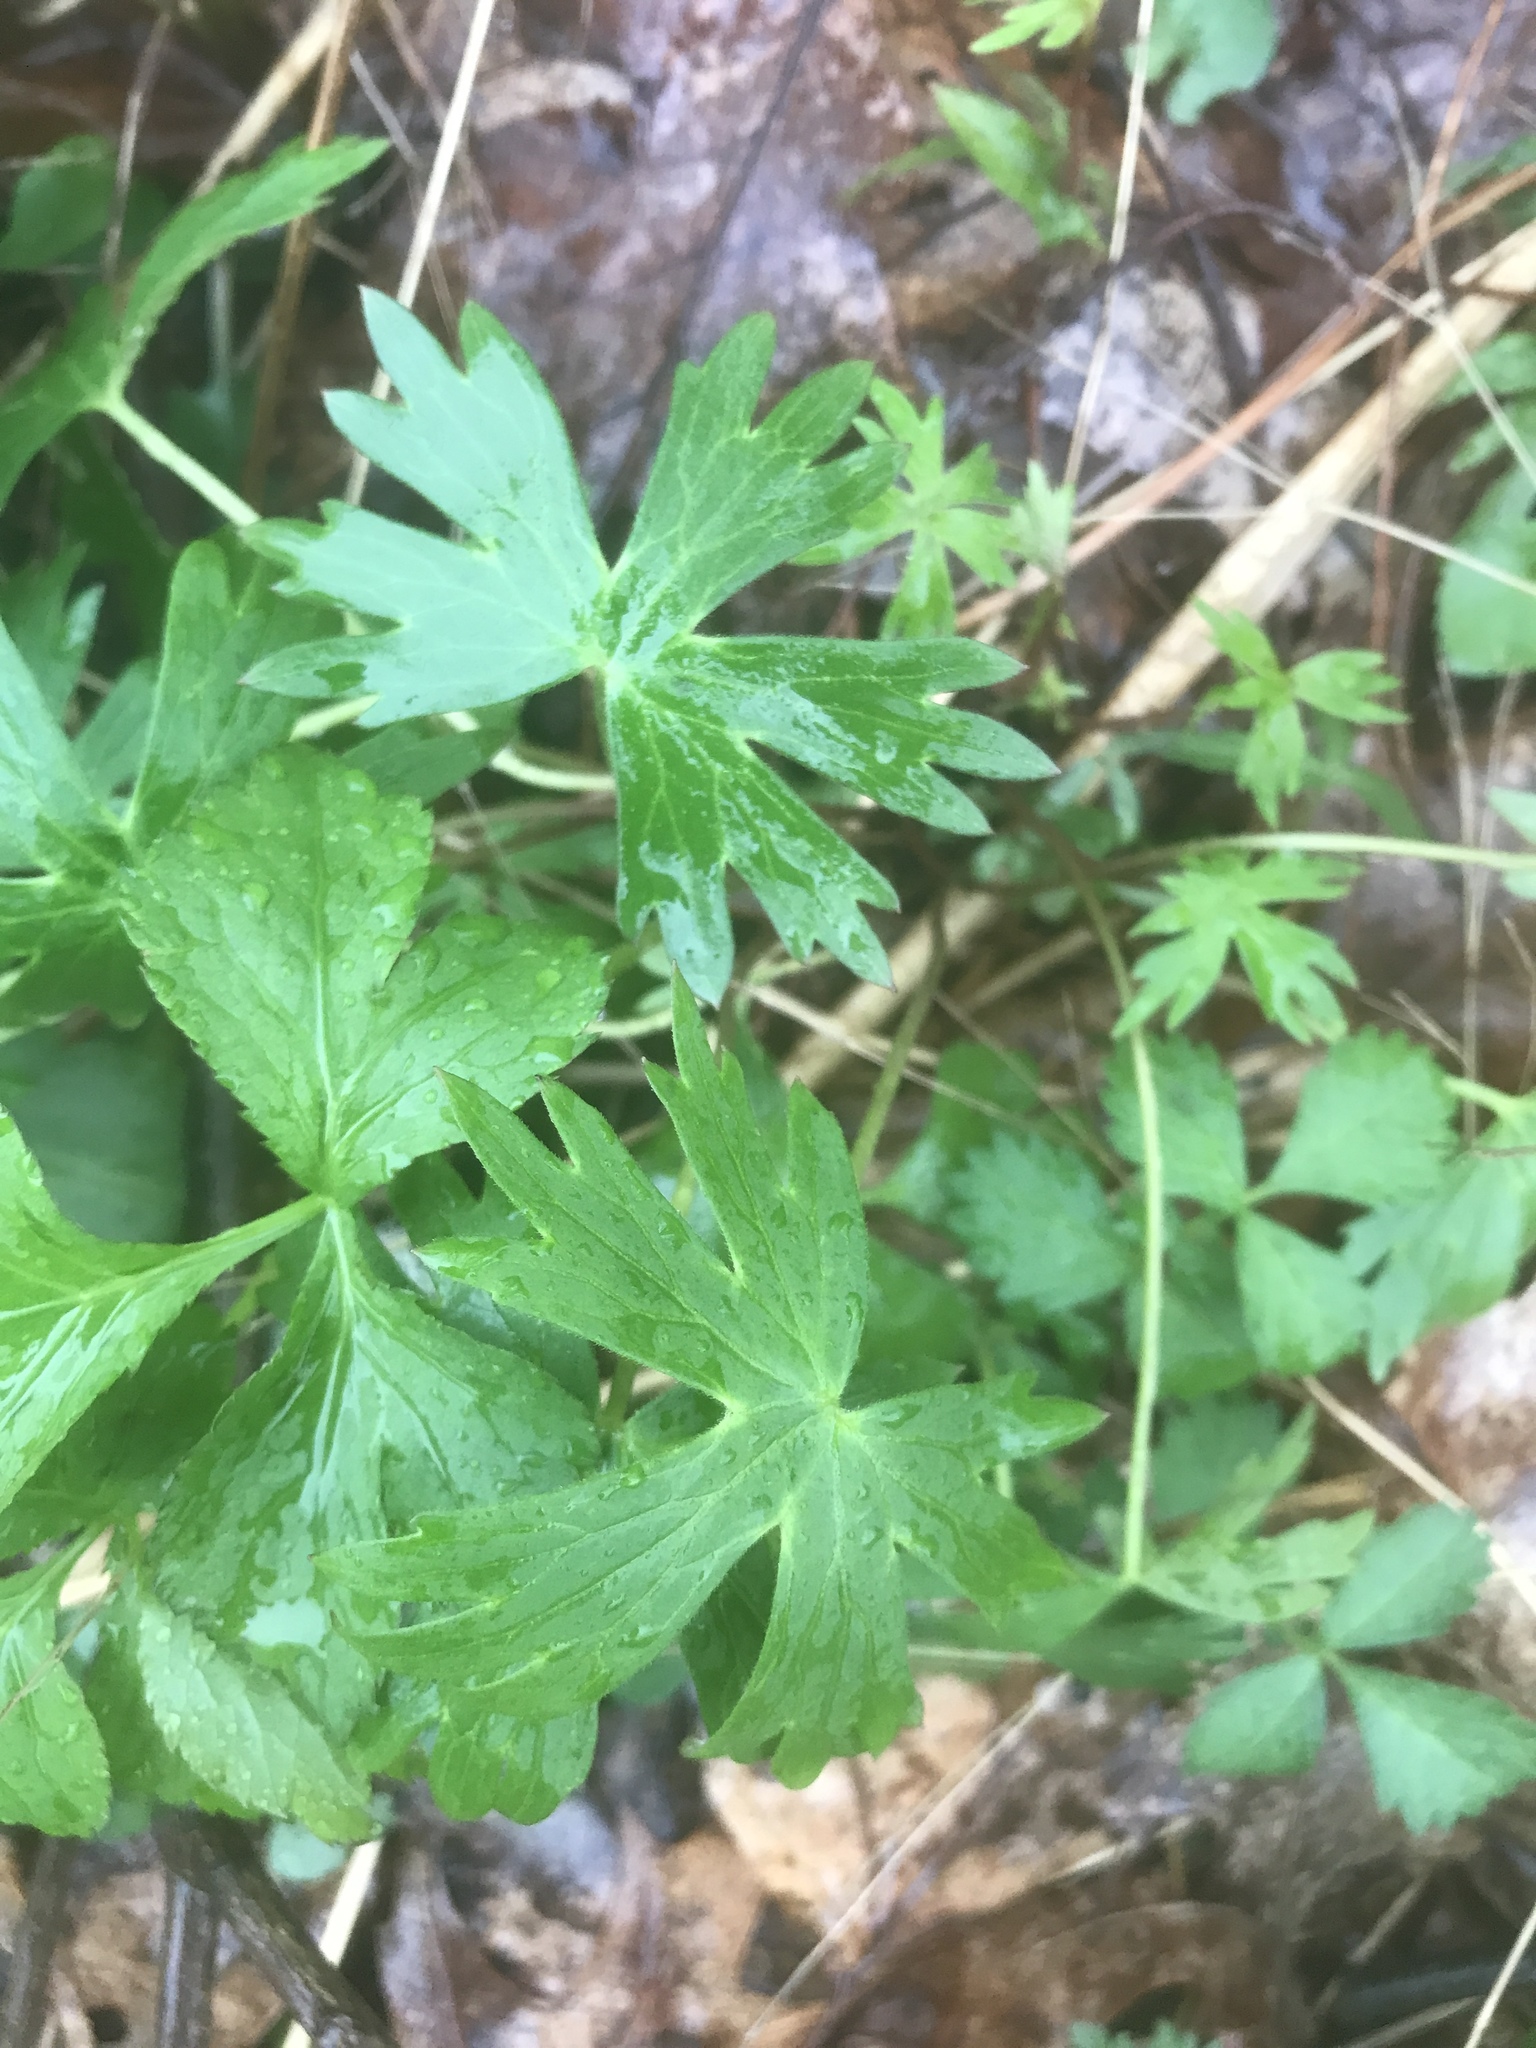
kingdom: Plantae
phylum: Tracheophyta
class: Magnoliopsida
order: Ranunculales
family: Ranunculaceae
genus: Delphinium
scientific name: Delphinium exaltatum
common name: Tall larkspur
